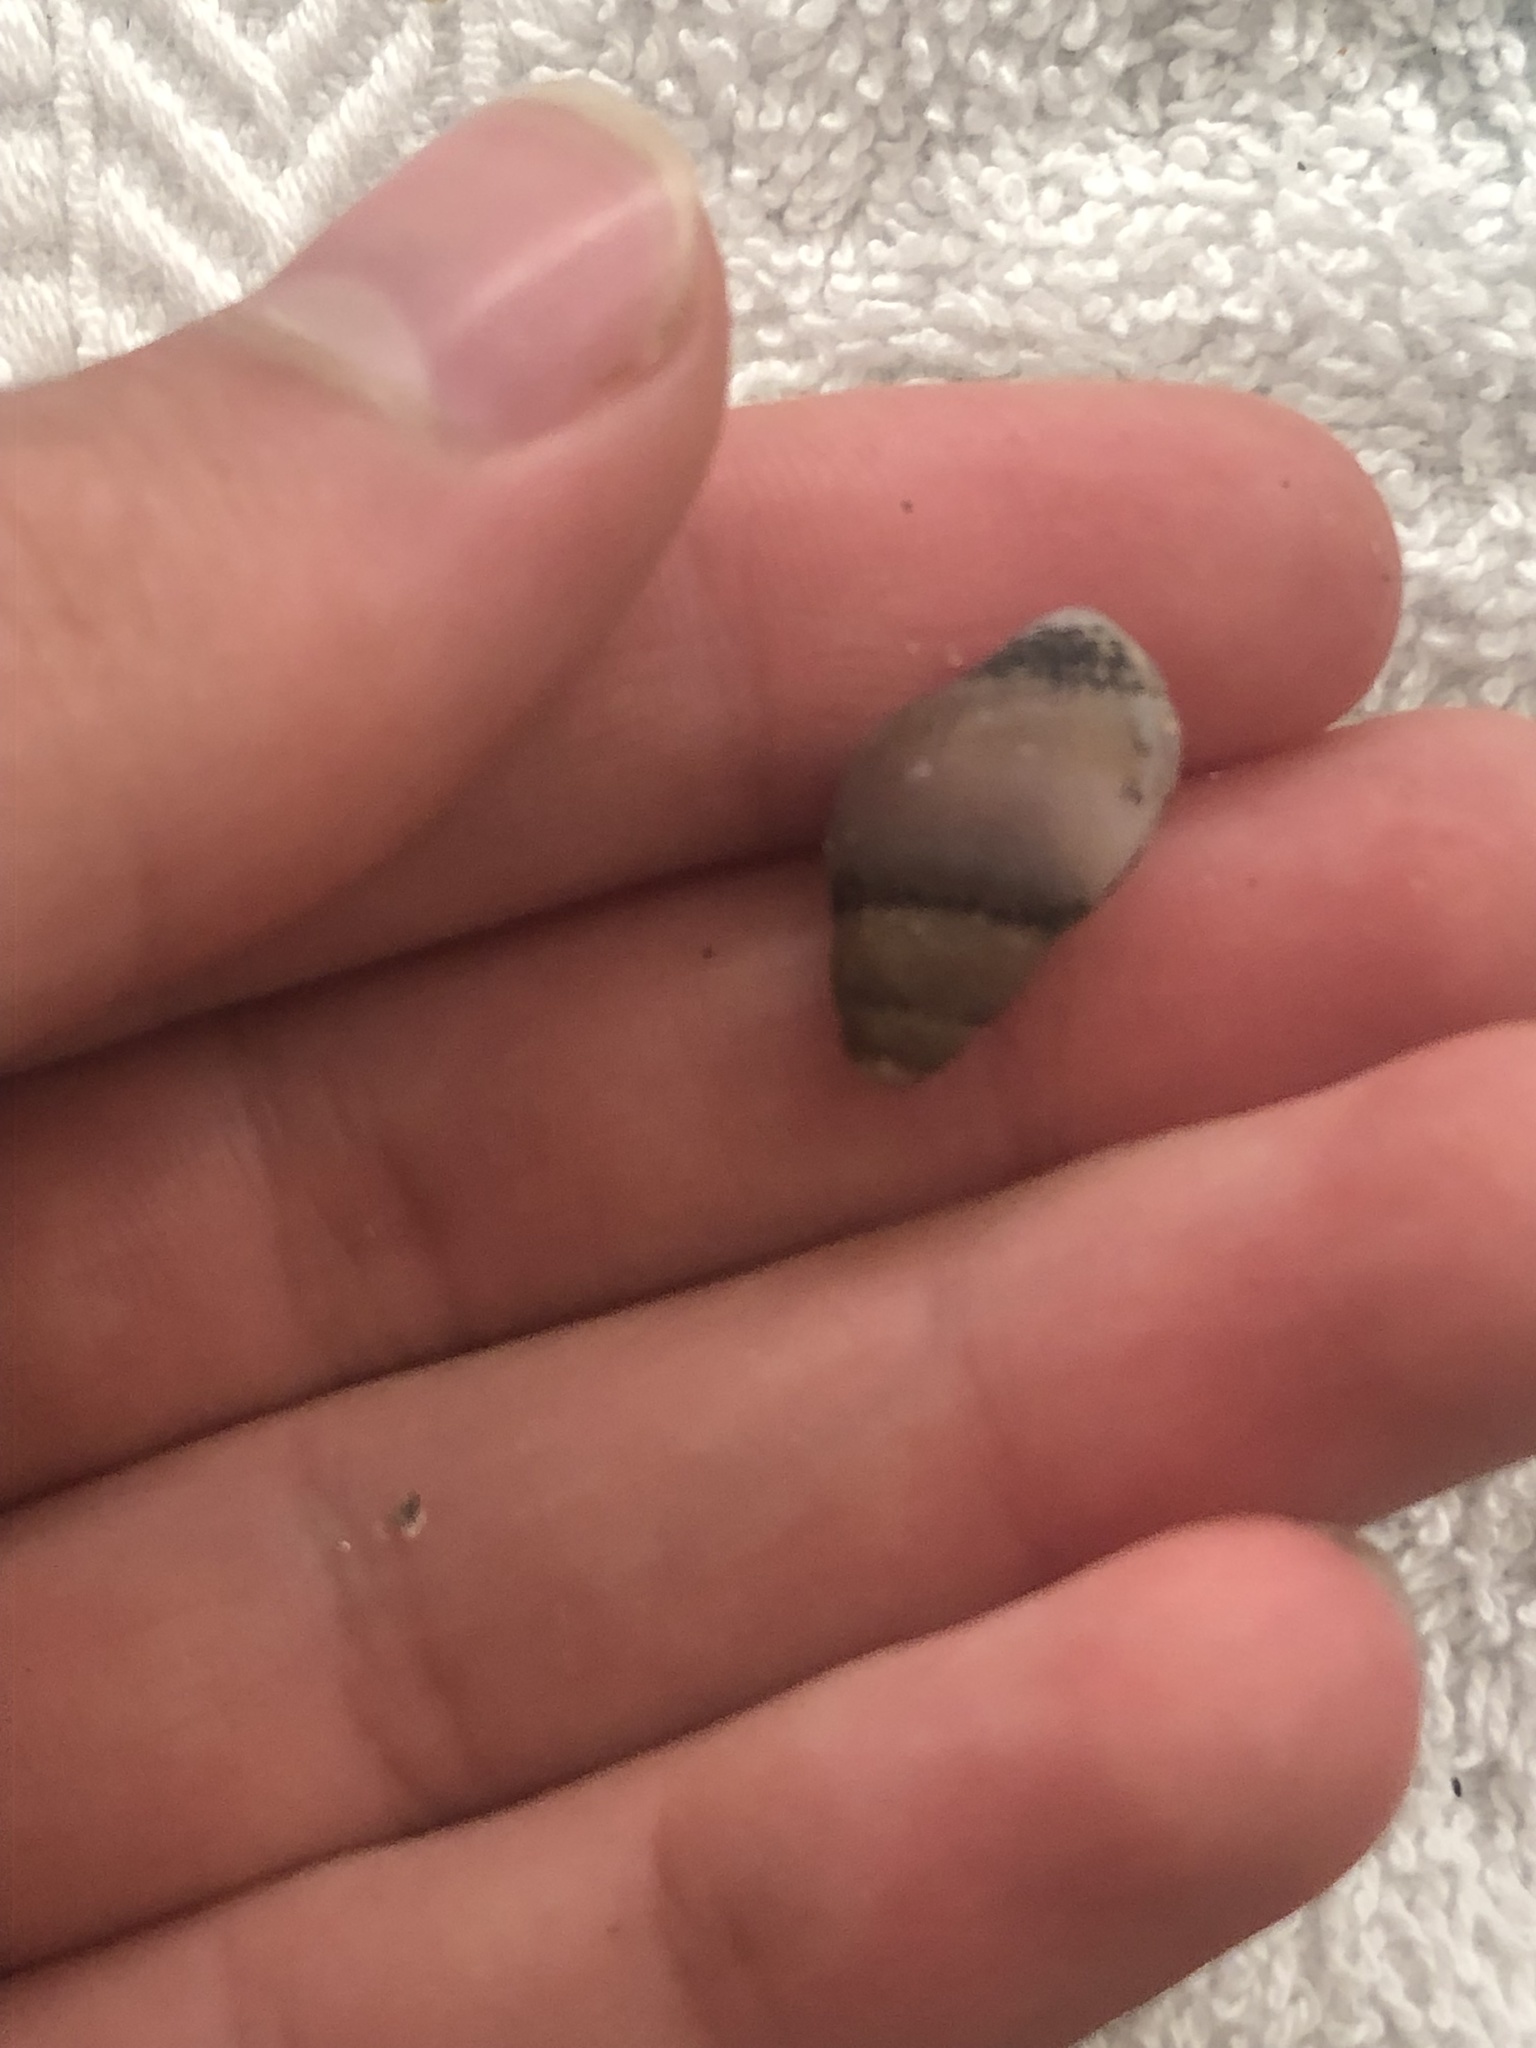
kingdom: Animalia
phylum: Mollusca
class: Gastropoda
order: Neogastropoda
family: Pseudolividae
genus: Macron
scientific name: Macron lividus
